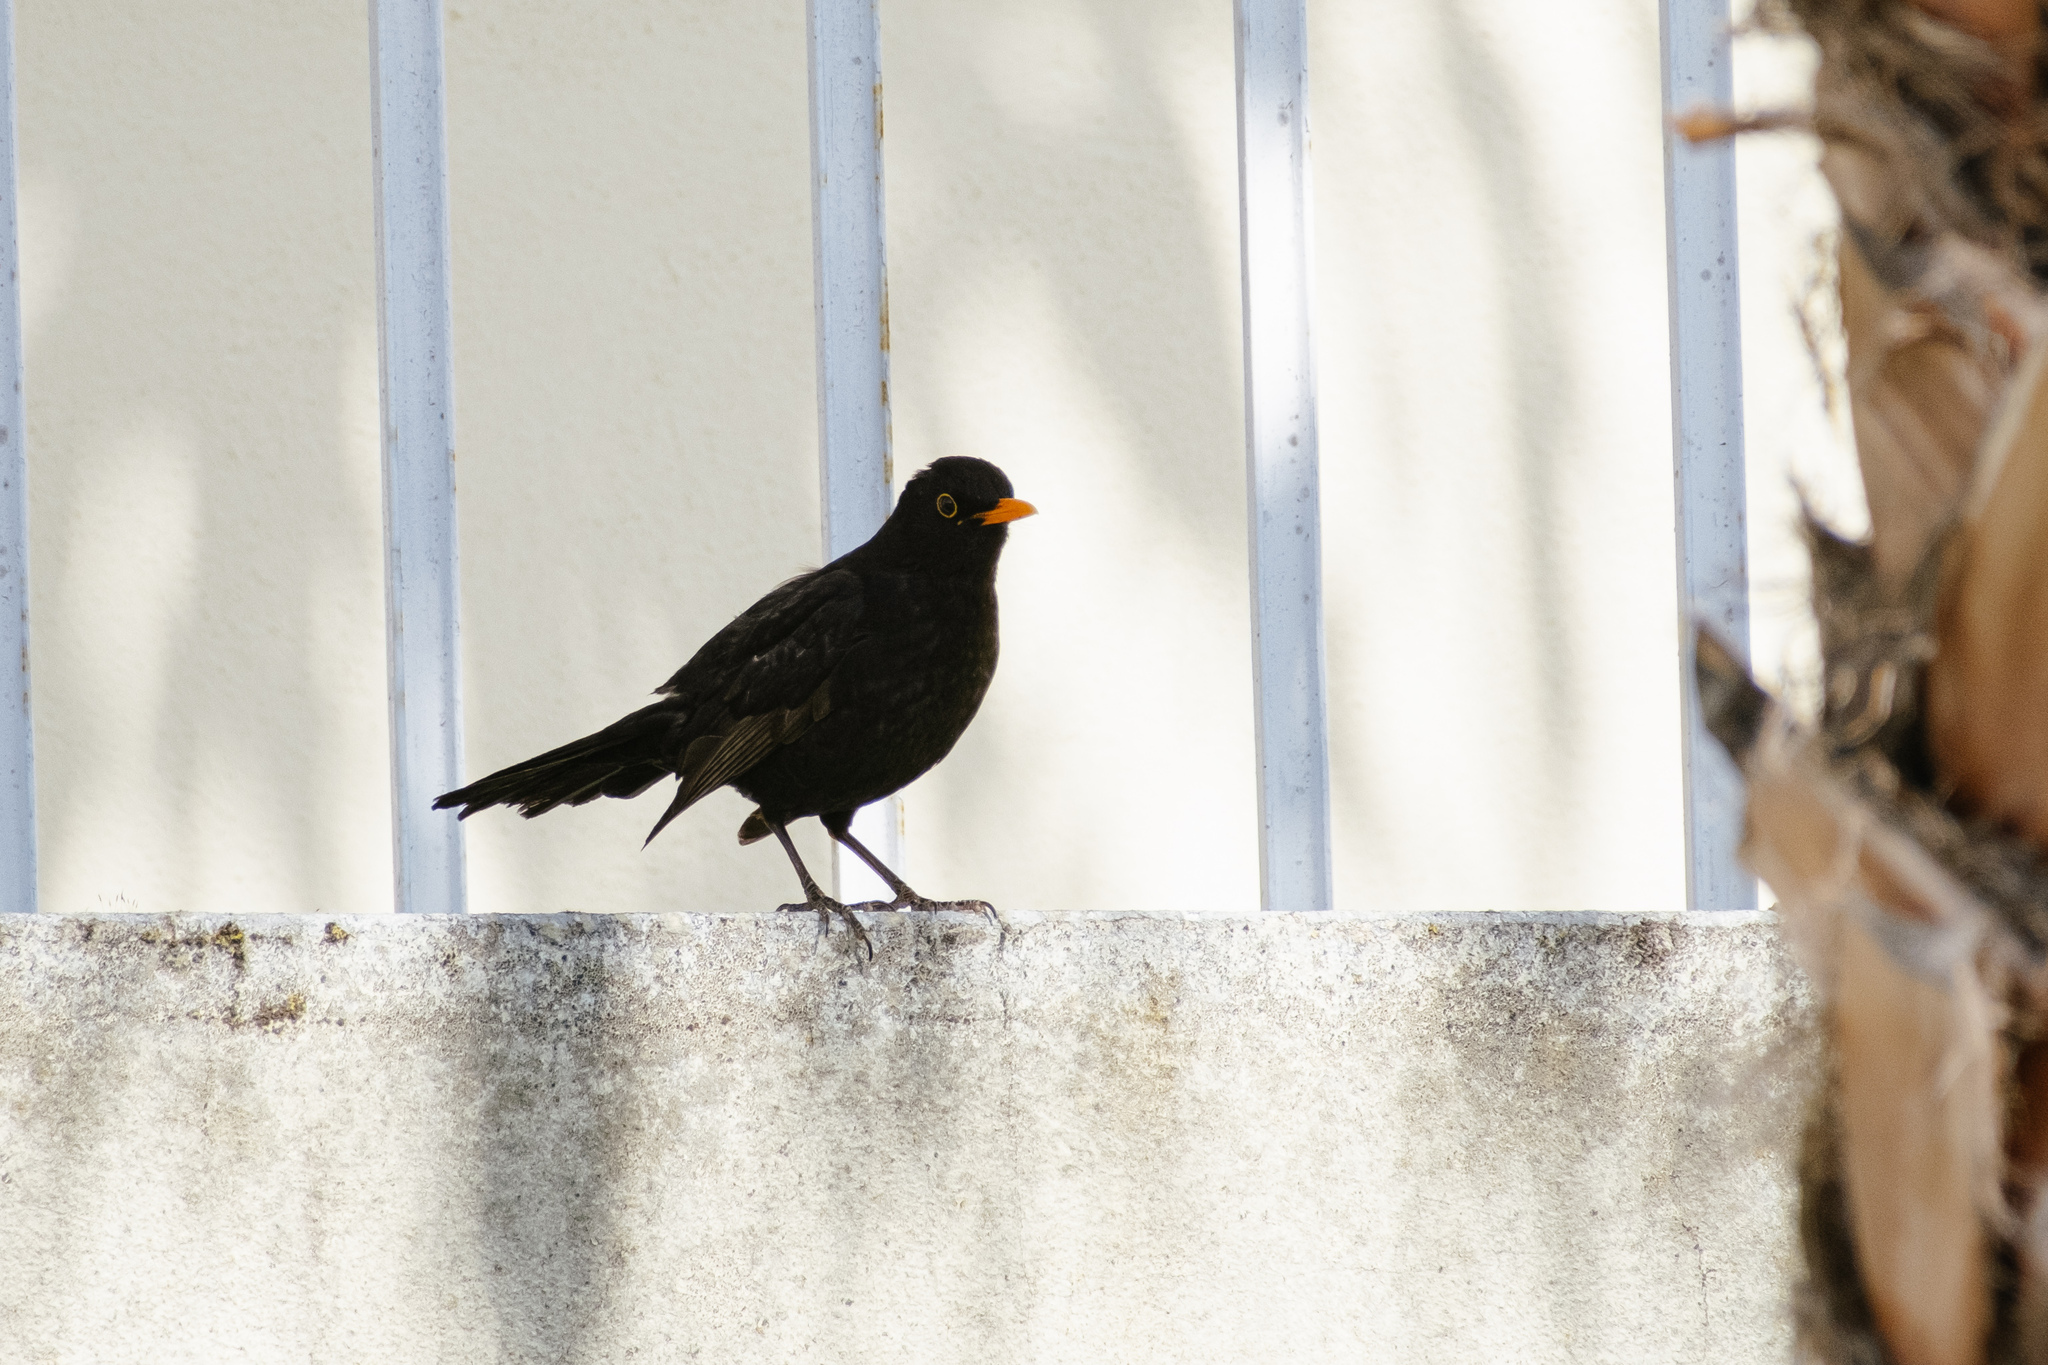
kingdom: Animalia
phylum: Chordata
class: Aves
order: Passeriformes
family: Turdidae
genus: Turdus
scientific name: Turdus merula
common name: Common blackbird
